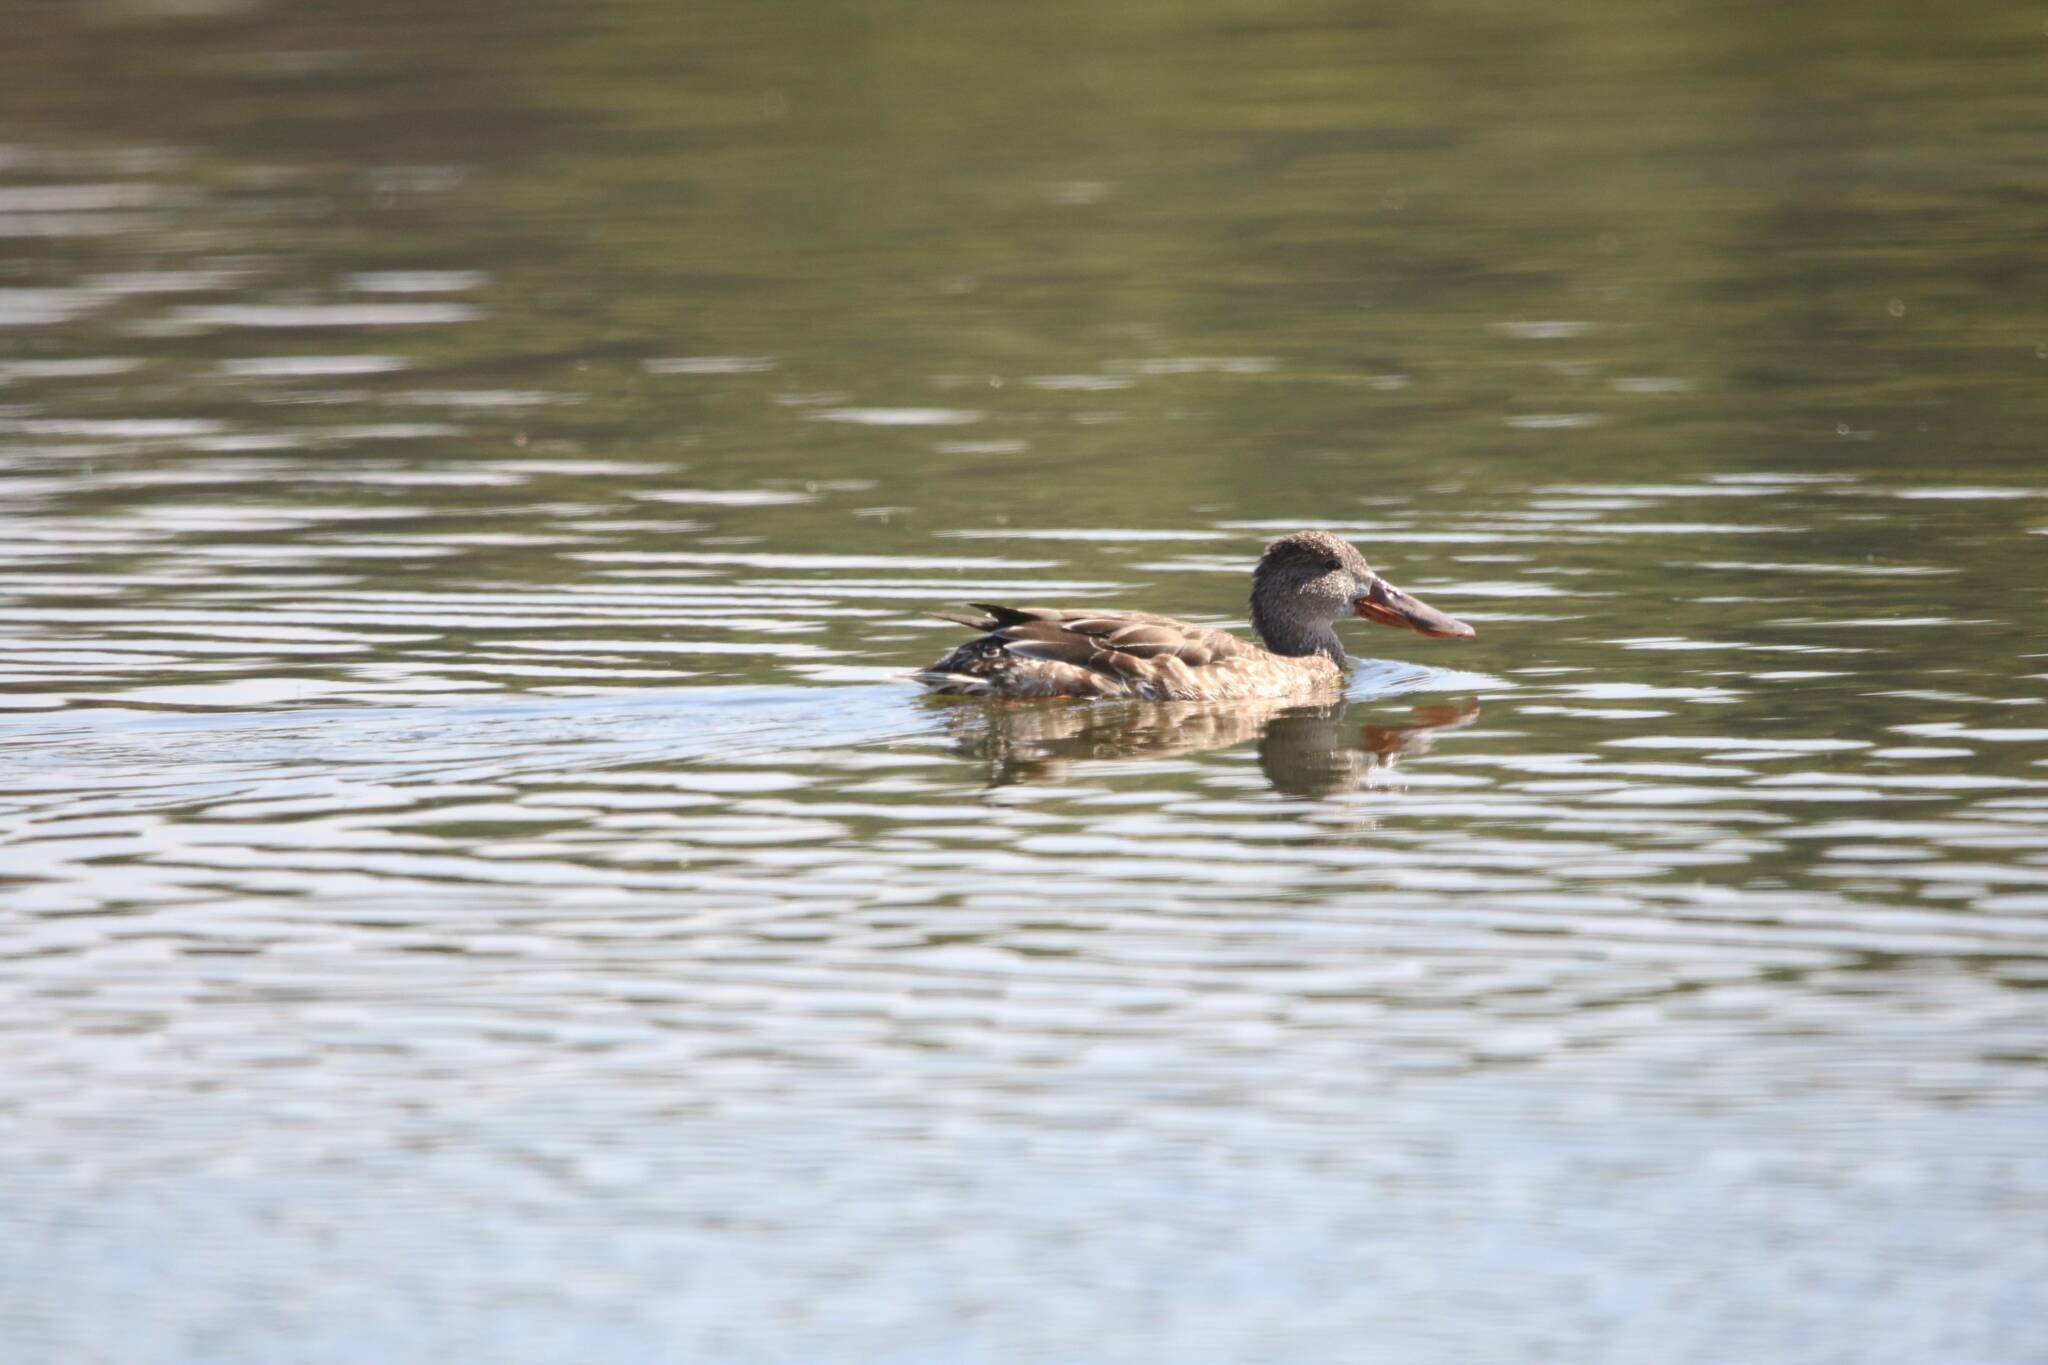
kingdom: Animalia
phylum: Chordata
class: Aves
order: Anseriformes
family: Anatidae
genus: Spatula
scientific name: Spatula clypeata
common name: Northern shoveler
